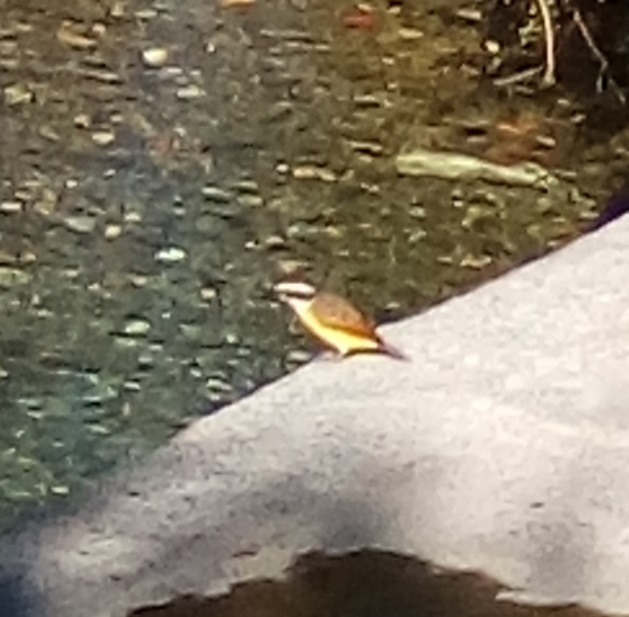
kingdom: Animalia
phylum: Chordata
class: Aves
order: Passeriformes
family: Tyrannidae
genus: Pitangus
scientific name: Pitangus sulphuratus
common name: Great kiskadee
